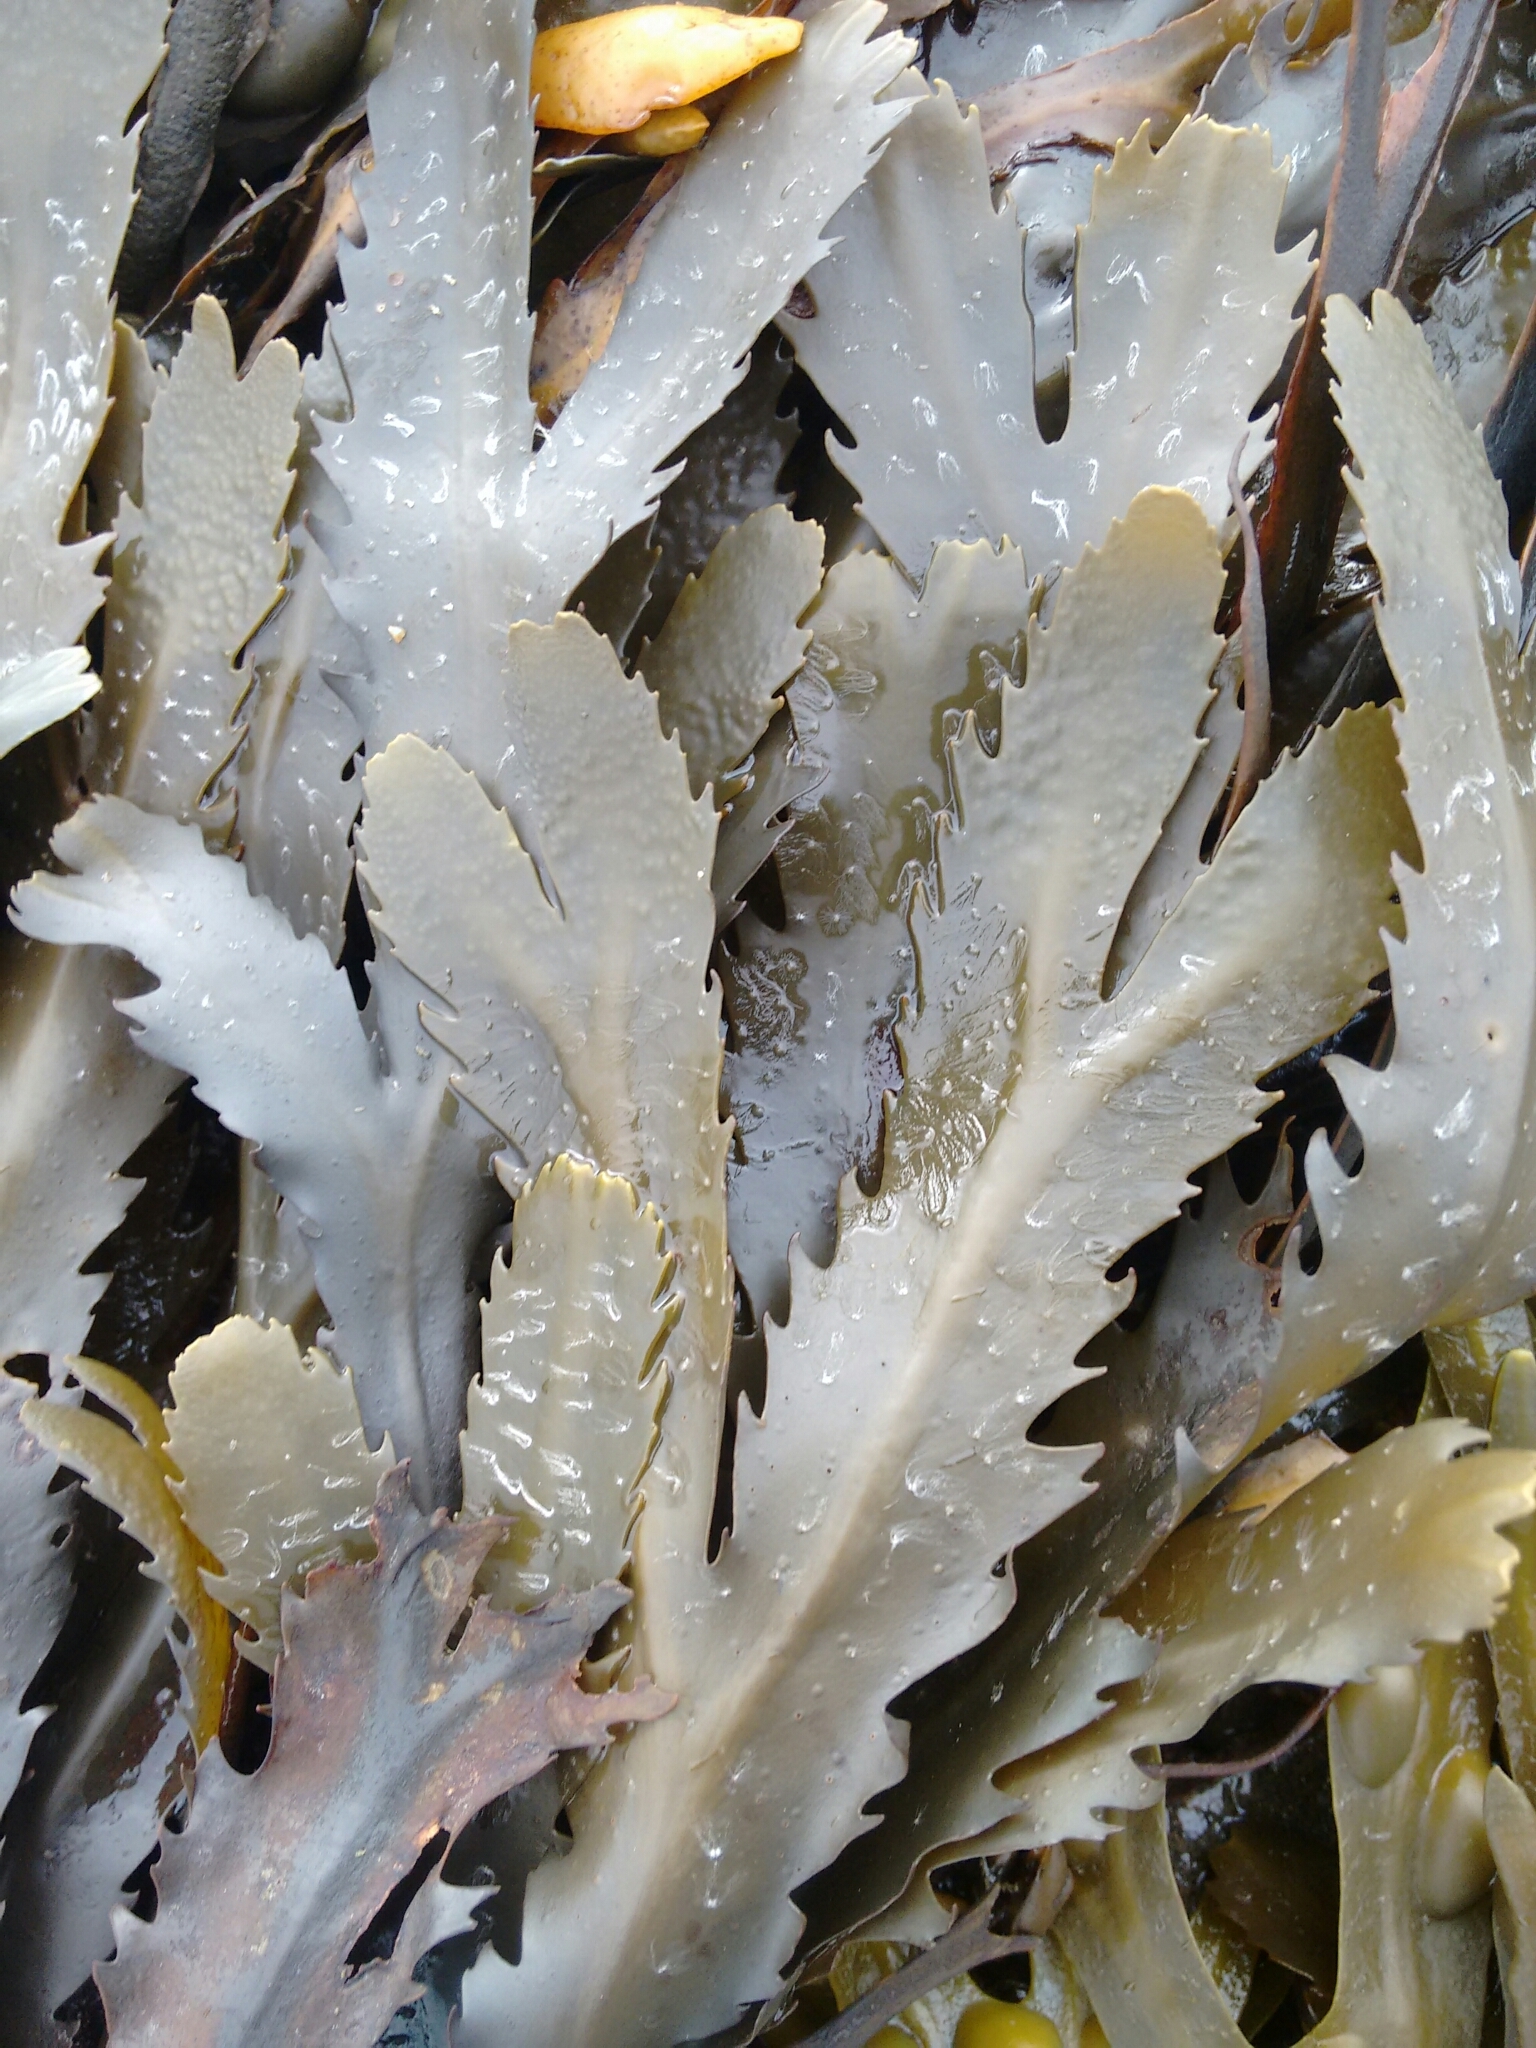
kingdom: Chromista
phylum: Ochrophyta
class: Phaeophyceae
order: Fucales
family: Fucaceae
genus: Fucus
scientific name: Fucus serratus
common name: Toothed wrack
